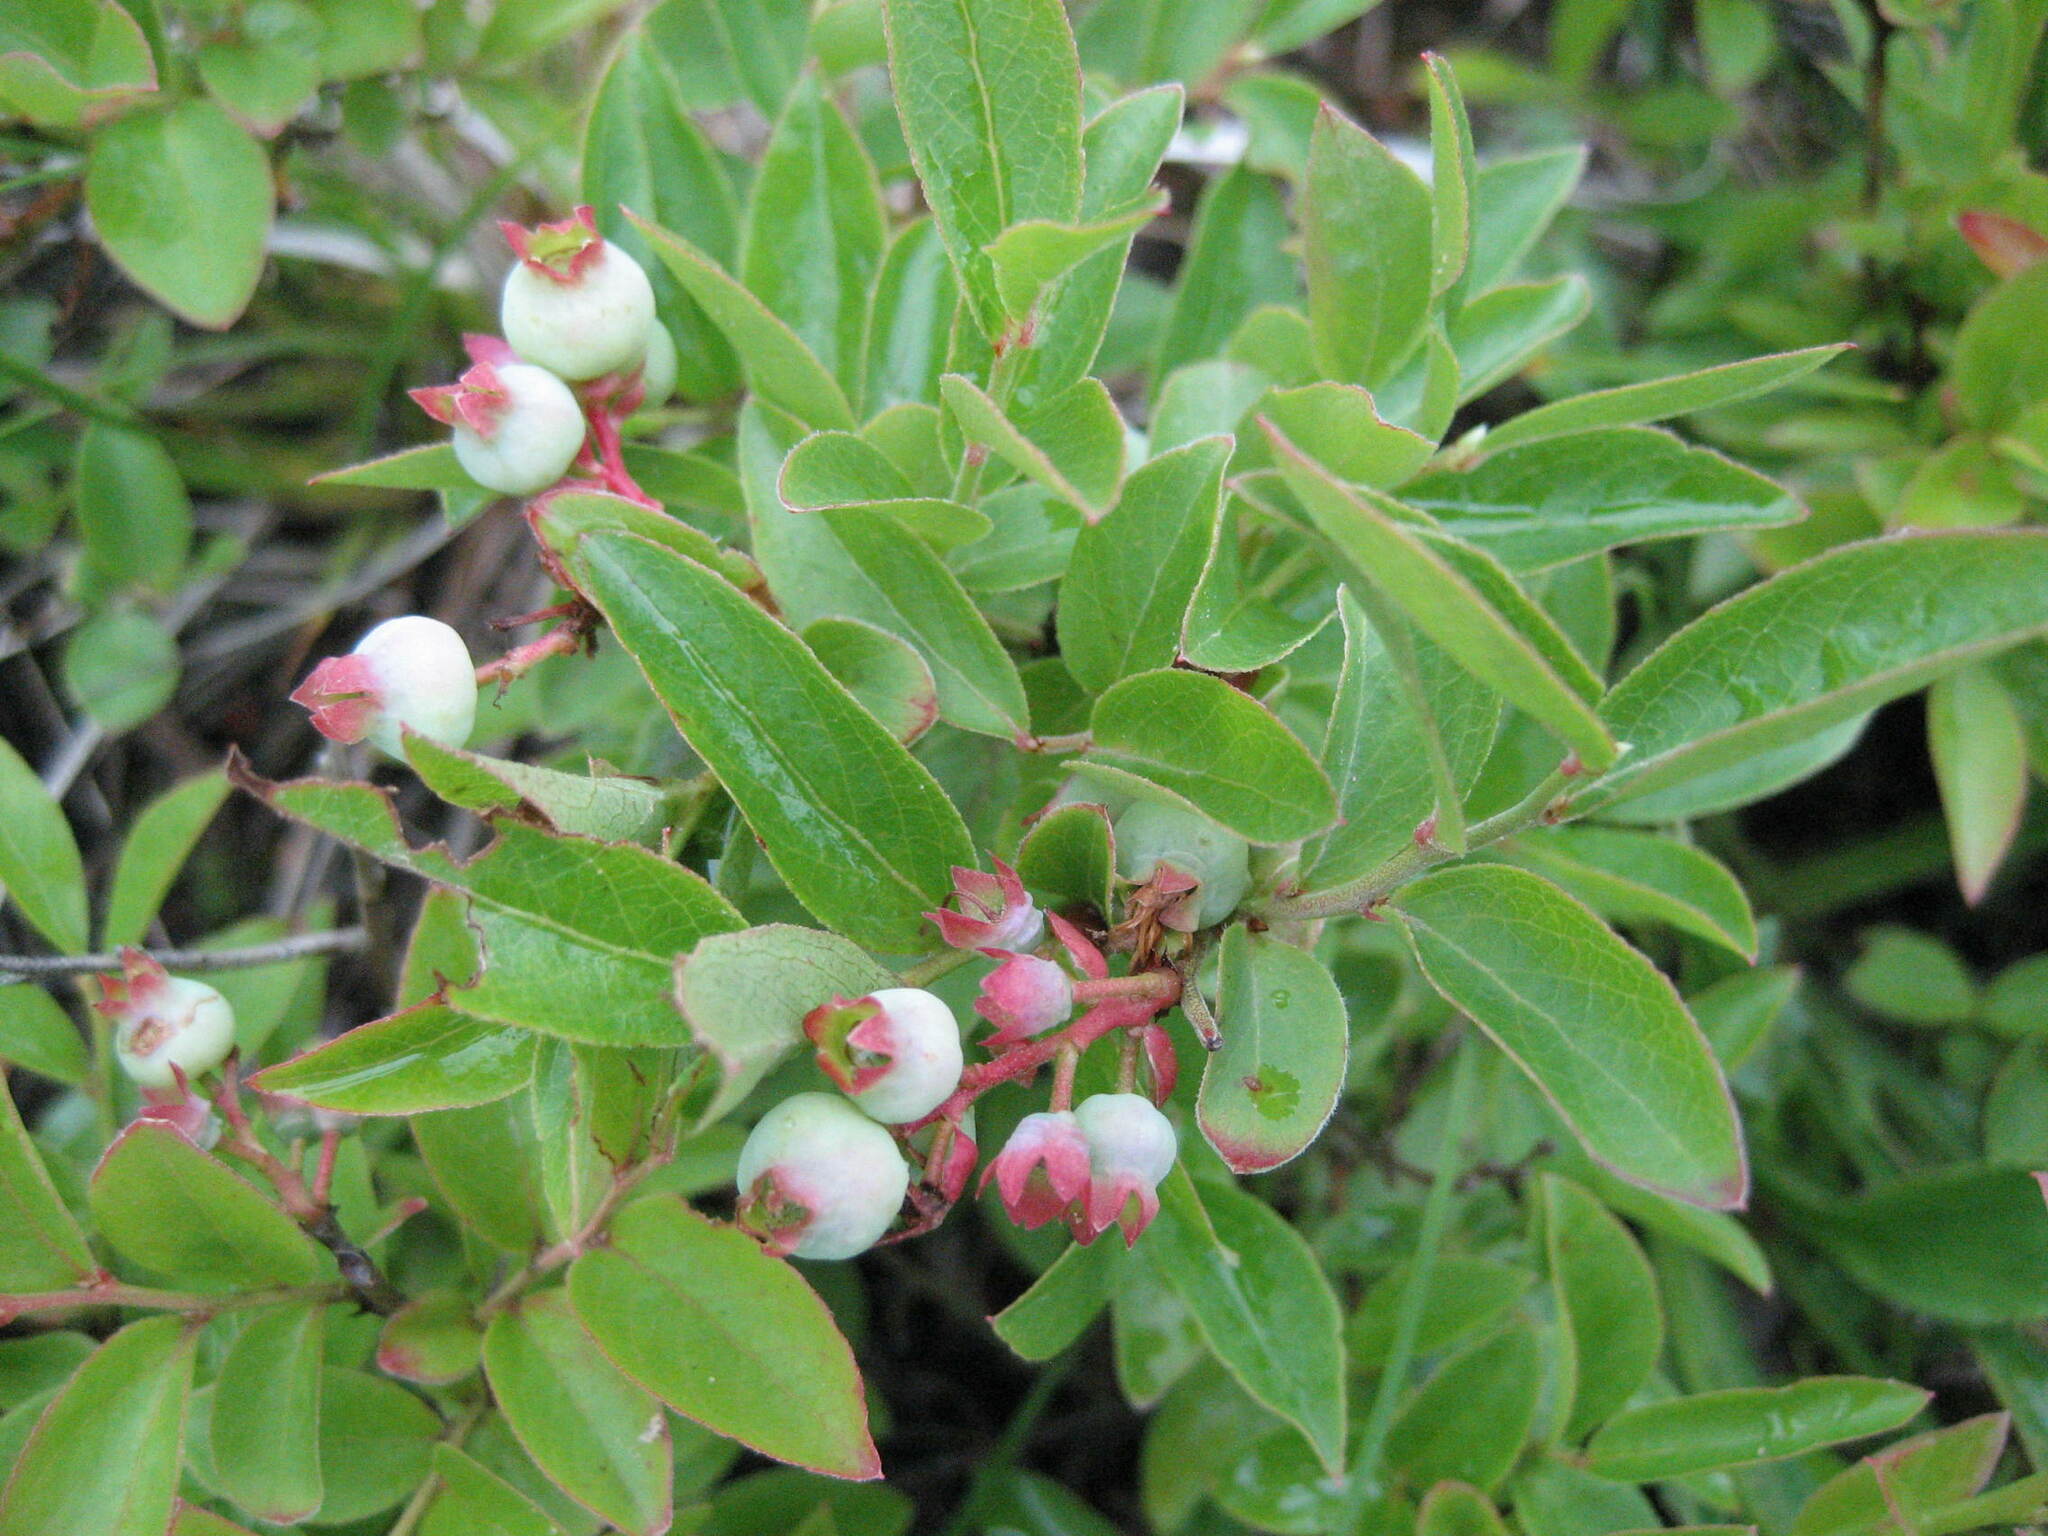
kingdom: Plantae
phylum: Tracheophyta
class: Magnoliopsida
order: Ericales
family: Ericaceae
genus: Vaccinium
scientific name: Vaccinium angustifolium
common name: Early lowbush blueberry
